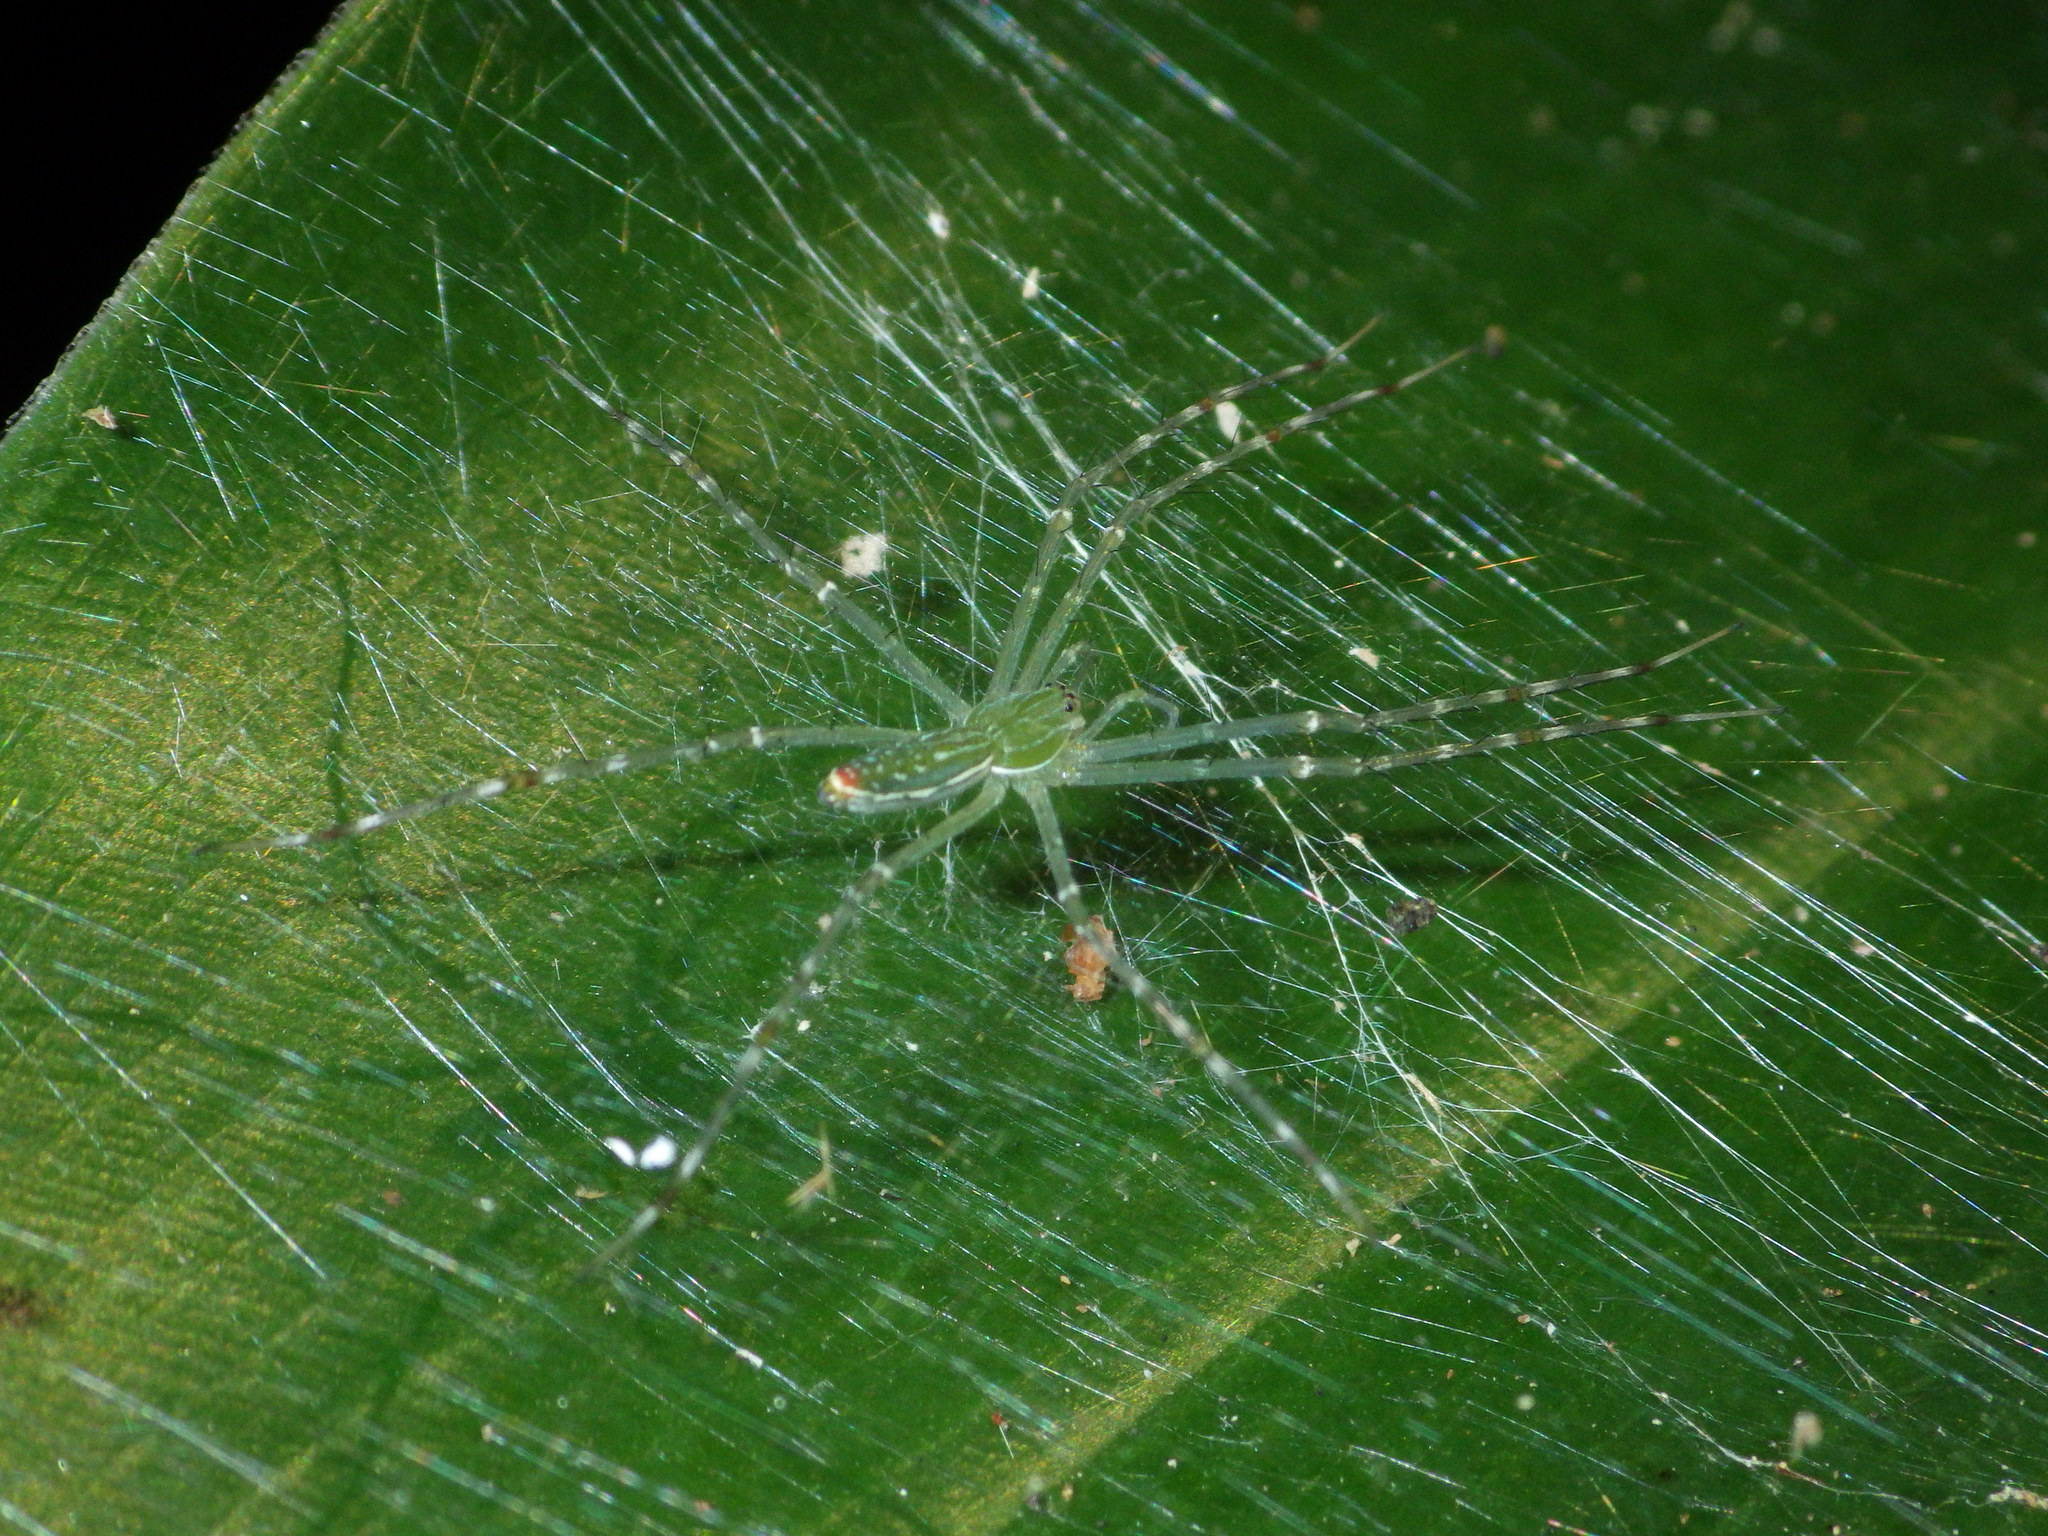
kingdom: Animalia
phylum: Arthropoda
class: Arachnida
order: Araneae
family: Pisauridae
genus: Hygropoda
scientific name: Hygropoda lineata
